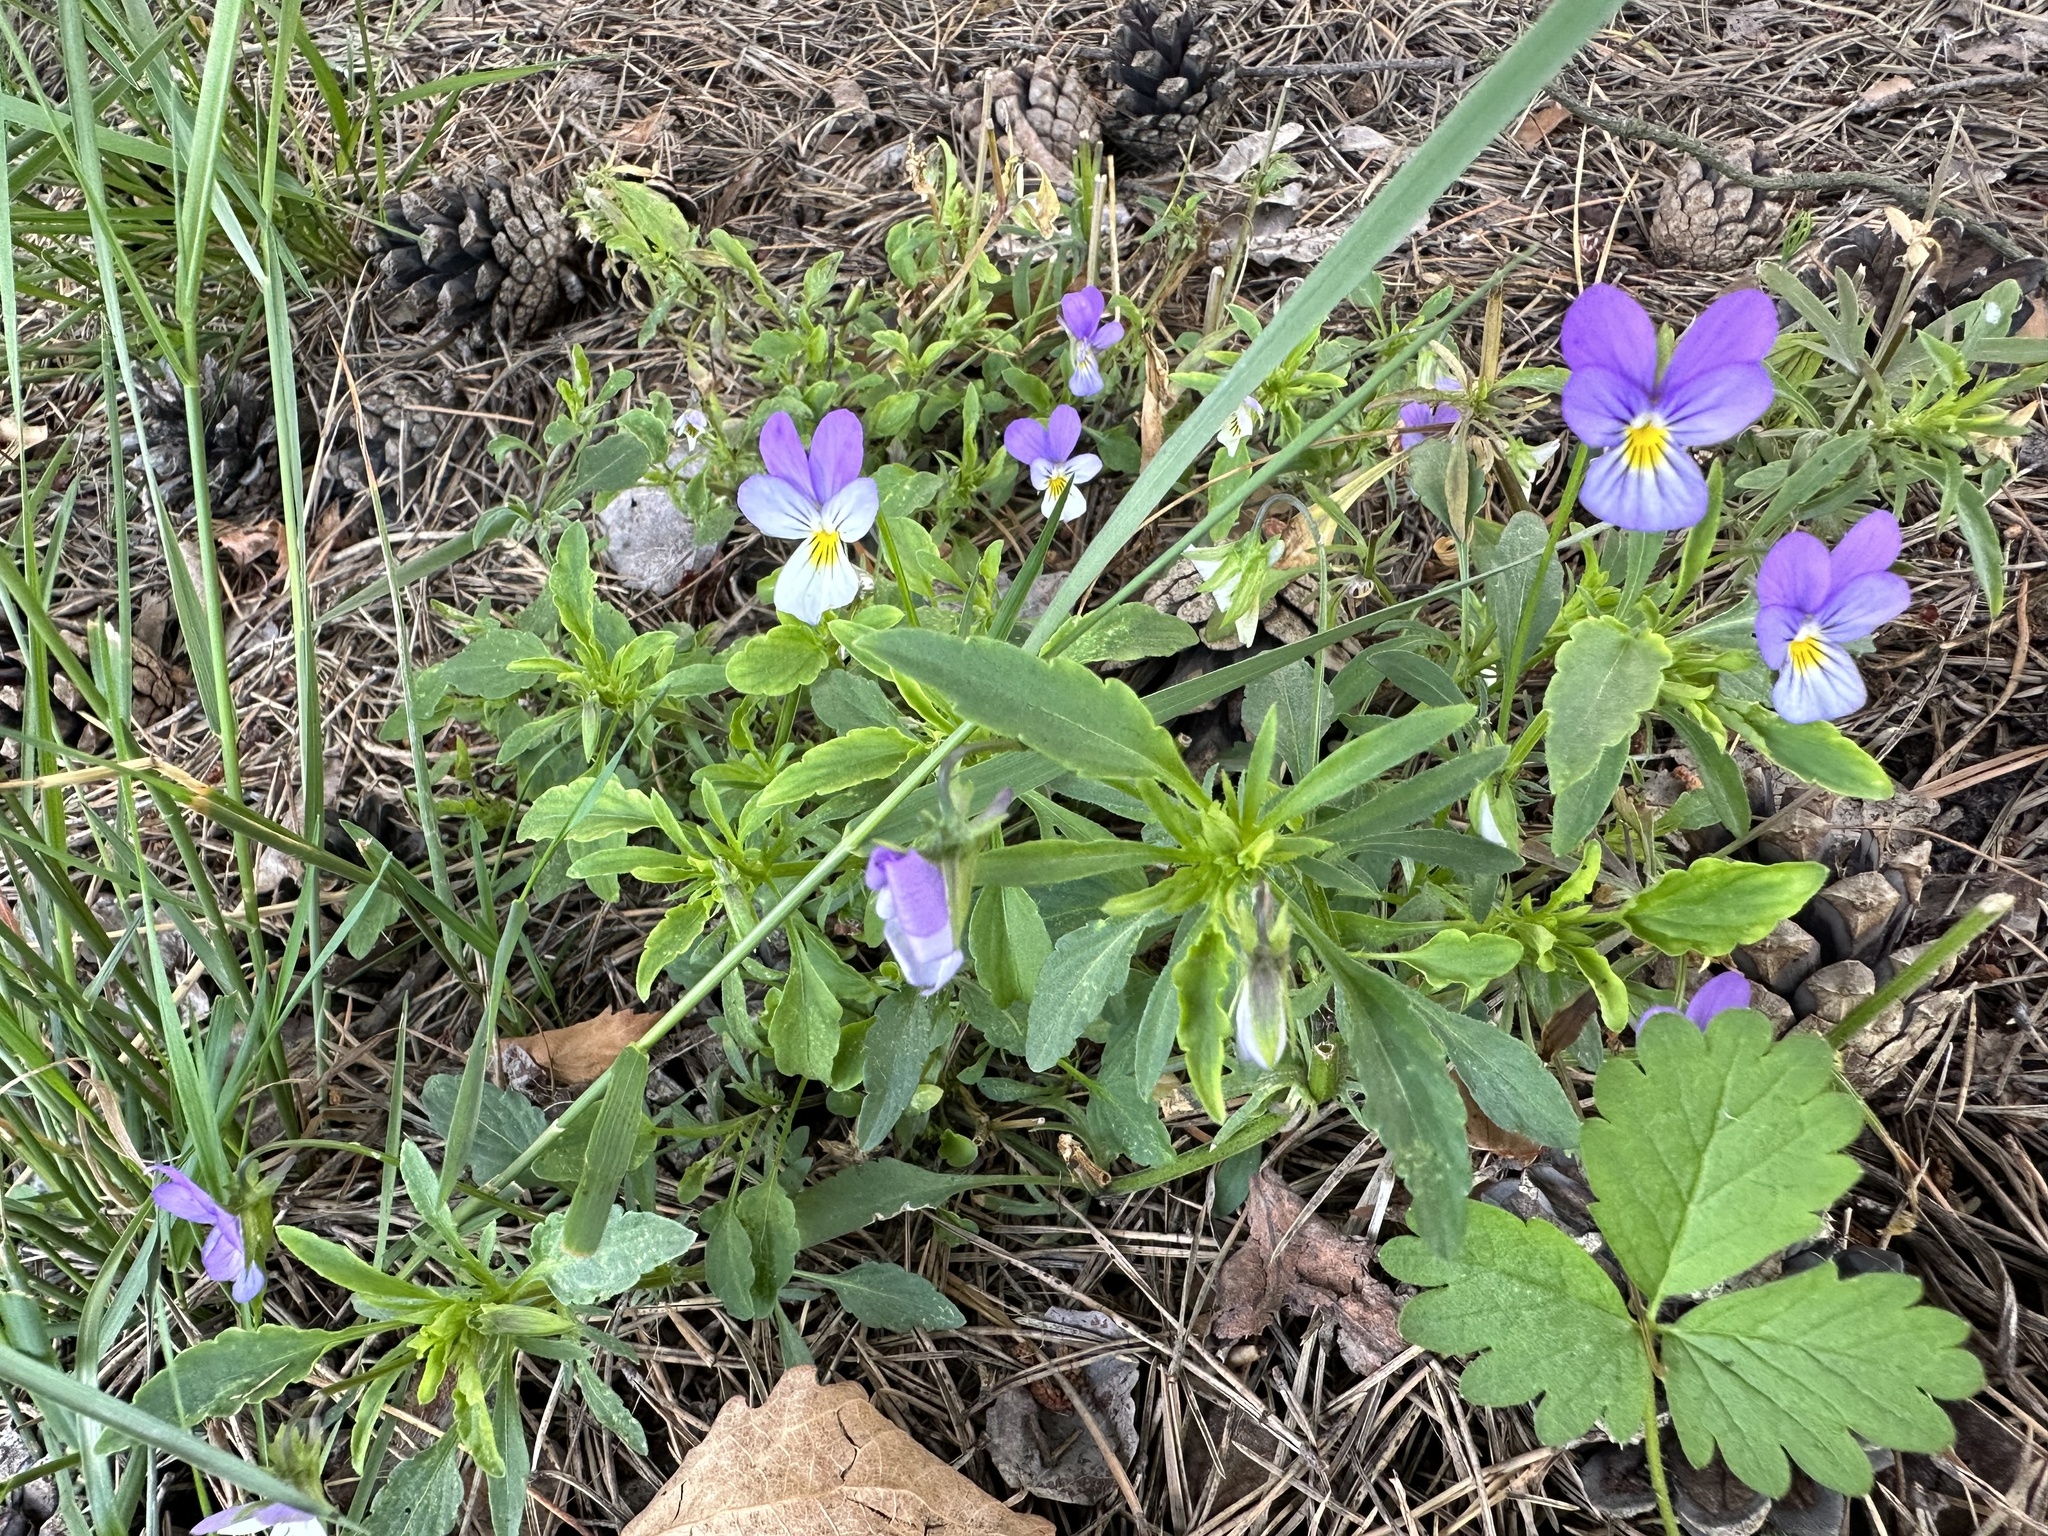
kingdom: Plantae
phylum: Tracheophyta
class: Magnoliopsida
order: Malpighiales
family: Violaceae
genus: Viola
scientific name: Viola tricolor
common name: Pansy
